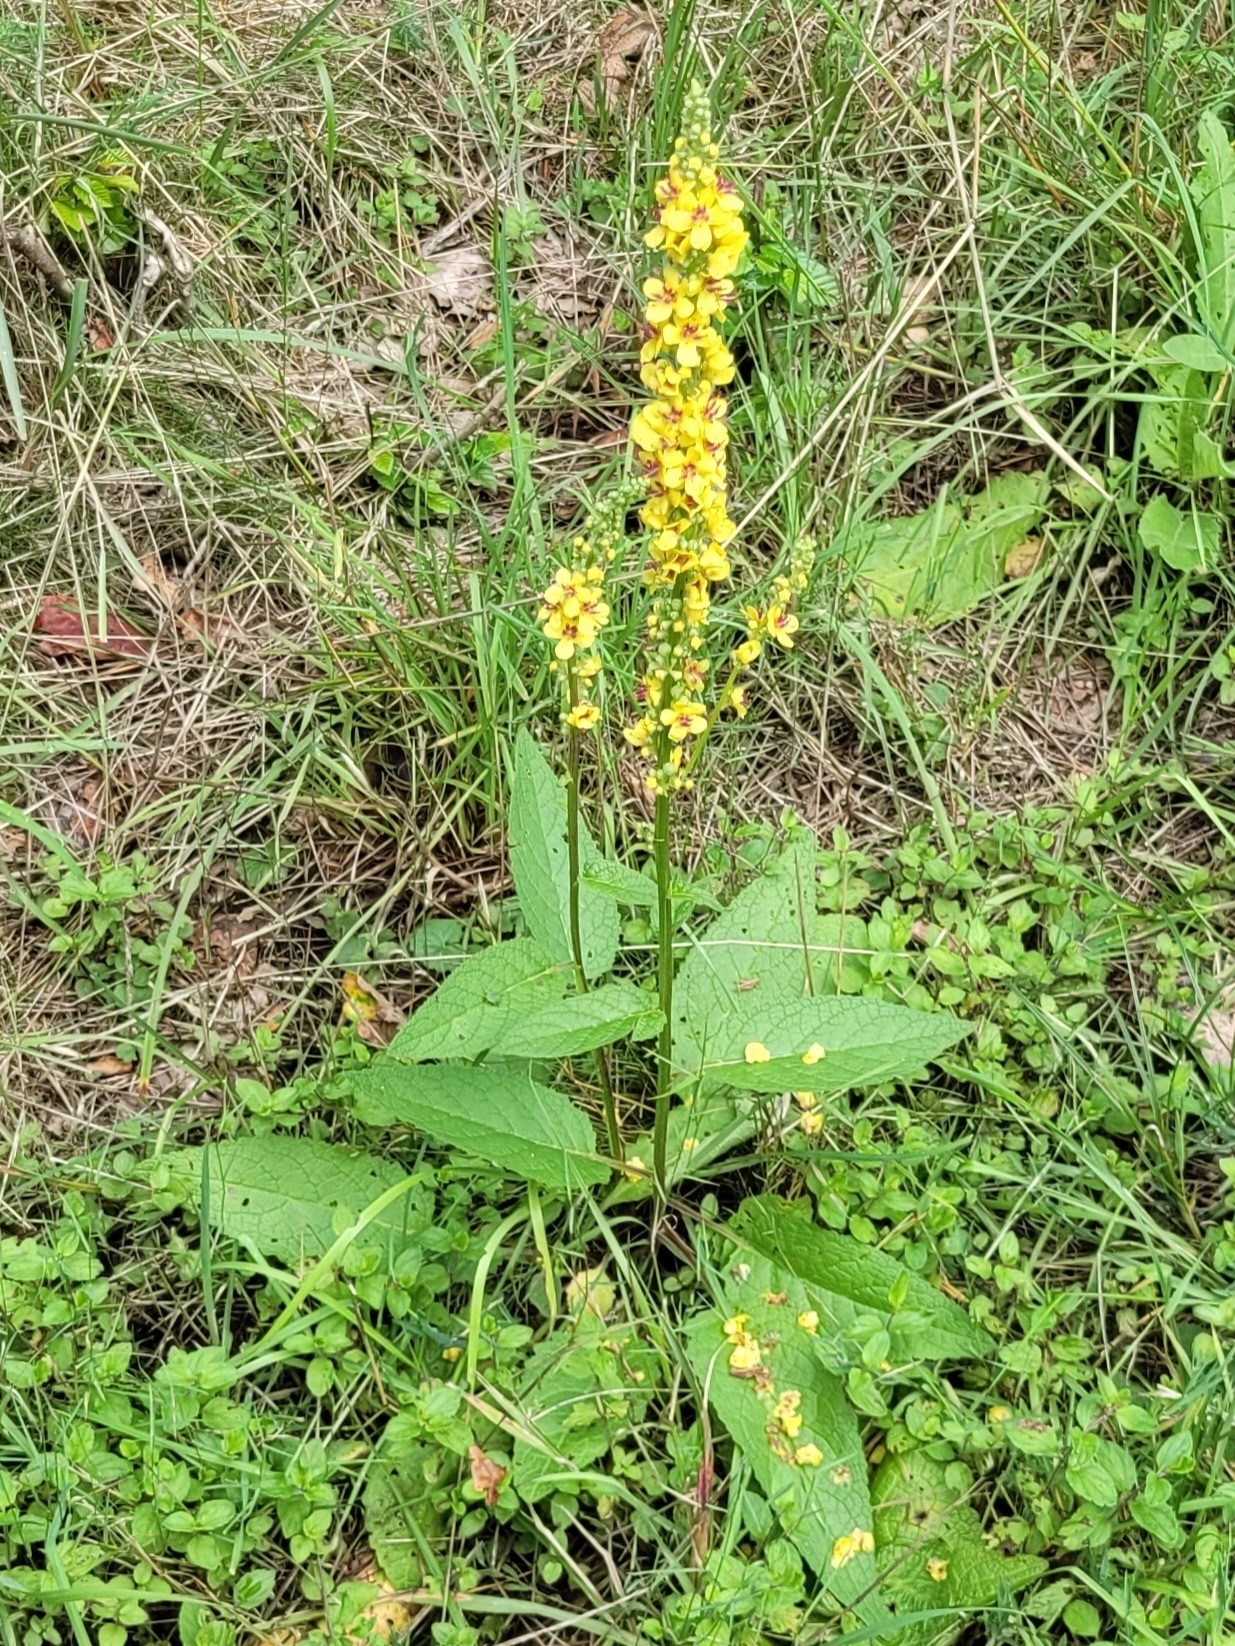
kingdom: Plantae
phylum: Tracheophyta
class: Magnoliopsida
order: Lamiales
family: Scrophulariaceae
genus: Verbascum
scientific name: Verbascum nigrum
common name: Dark mullein
